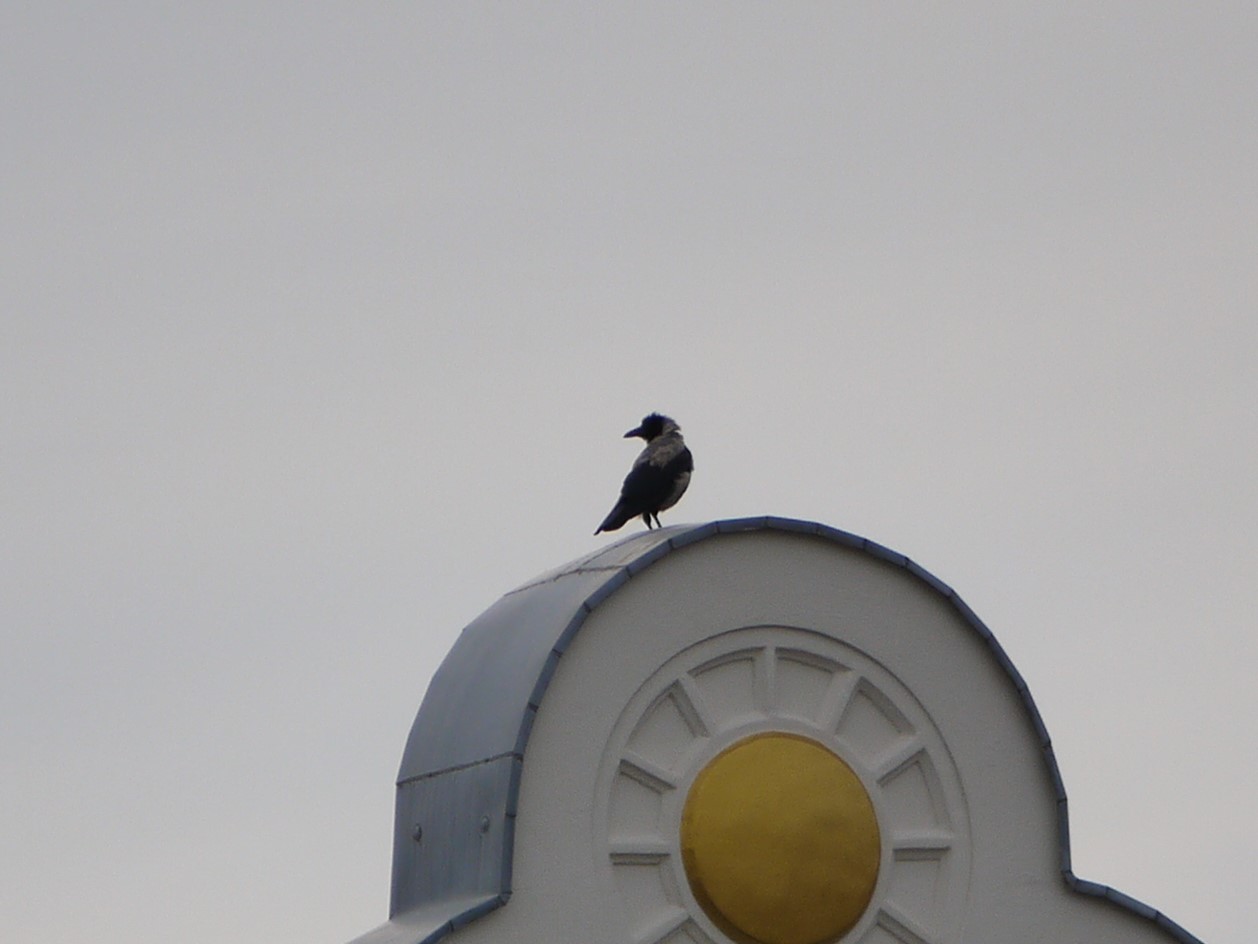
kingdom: Animalia
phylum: Chordata
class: Aves
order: Passeriformes
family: Corvidae
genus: Corvus
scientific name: Corvus cornix
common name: Hooded crow
